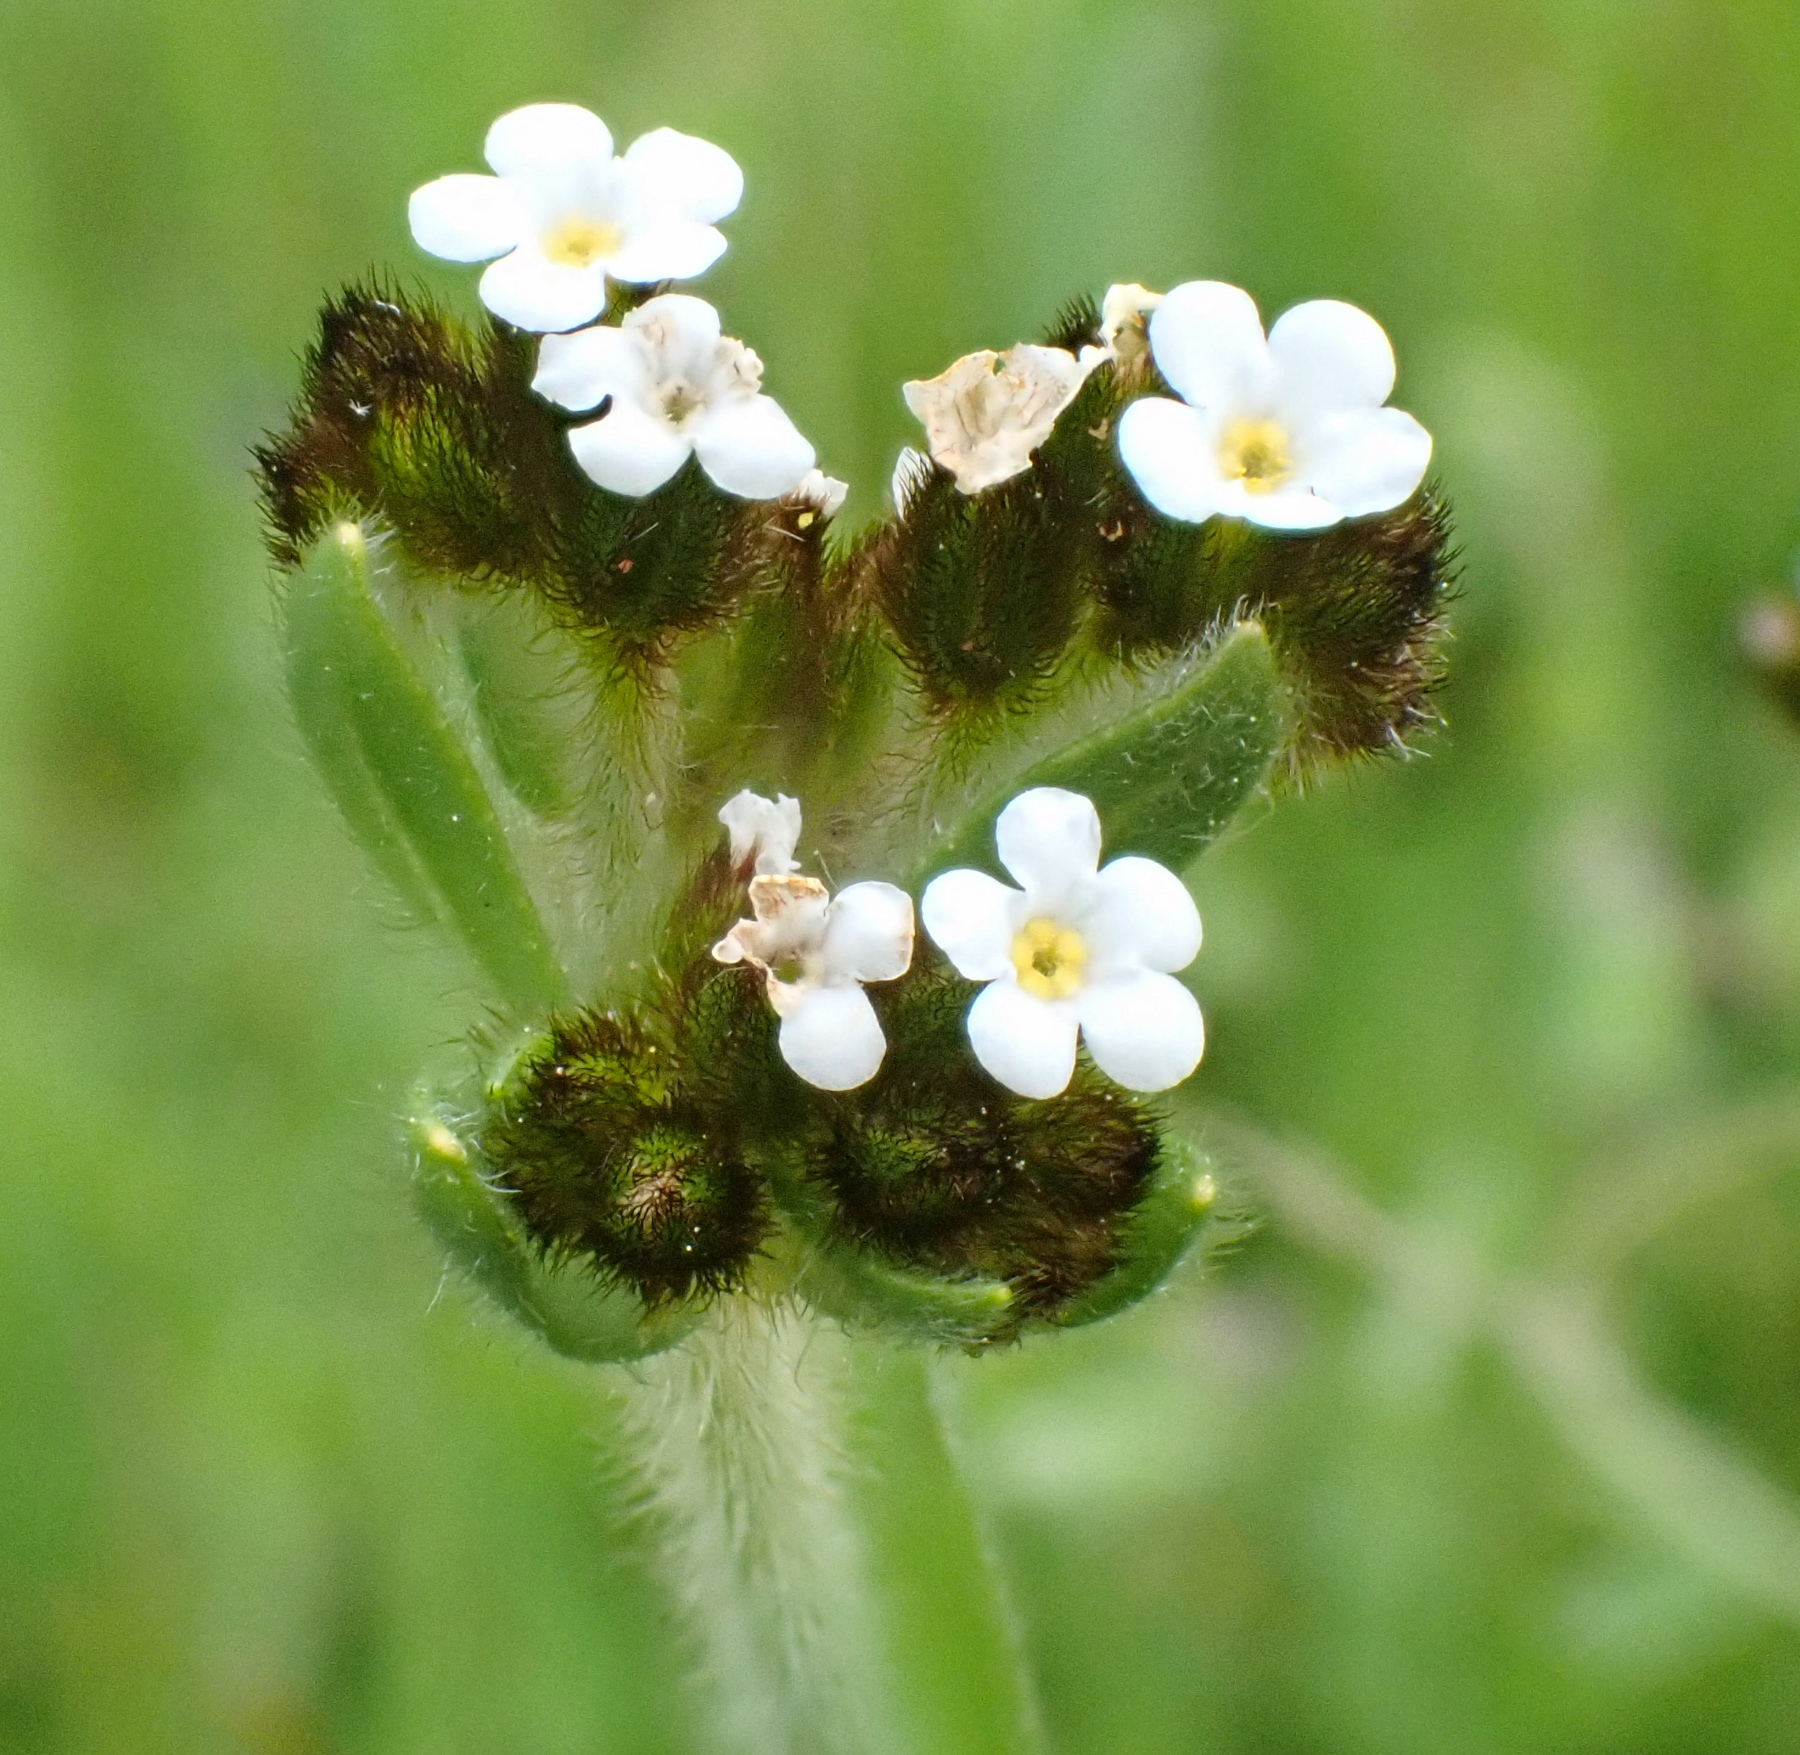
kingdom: Plantae
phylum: Tracheophyta
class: Magnoliopsida
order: Boraginales
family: Boraginaceae
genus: Plagiobothrys
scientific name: Plagiobothrys fulvus
